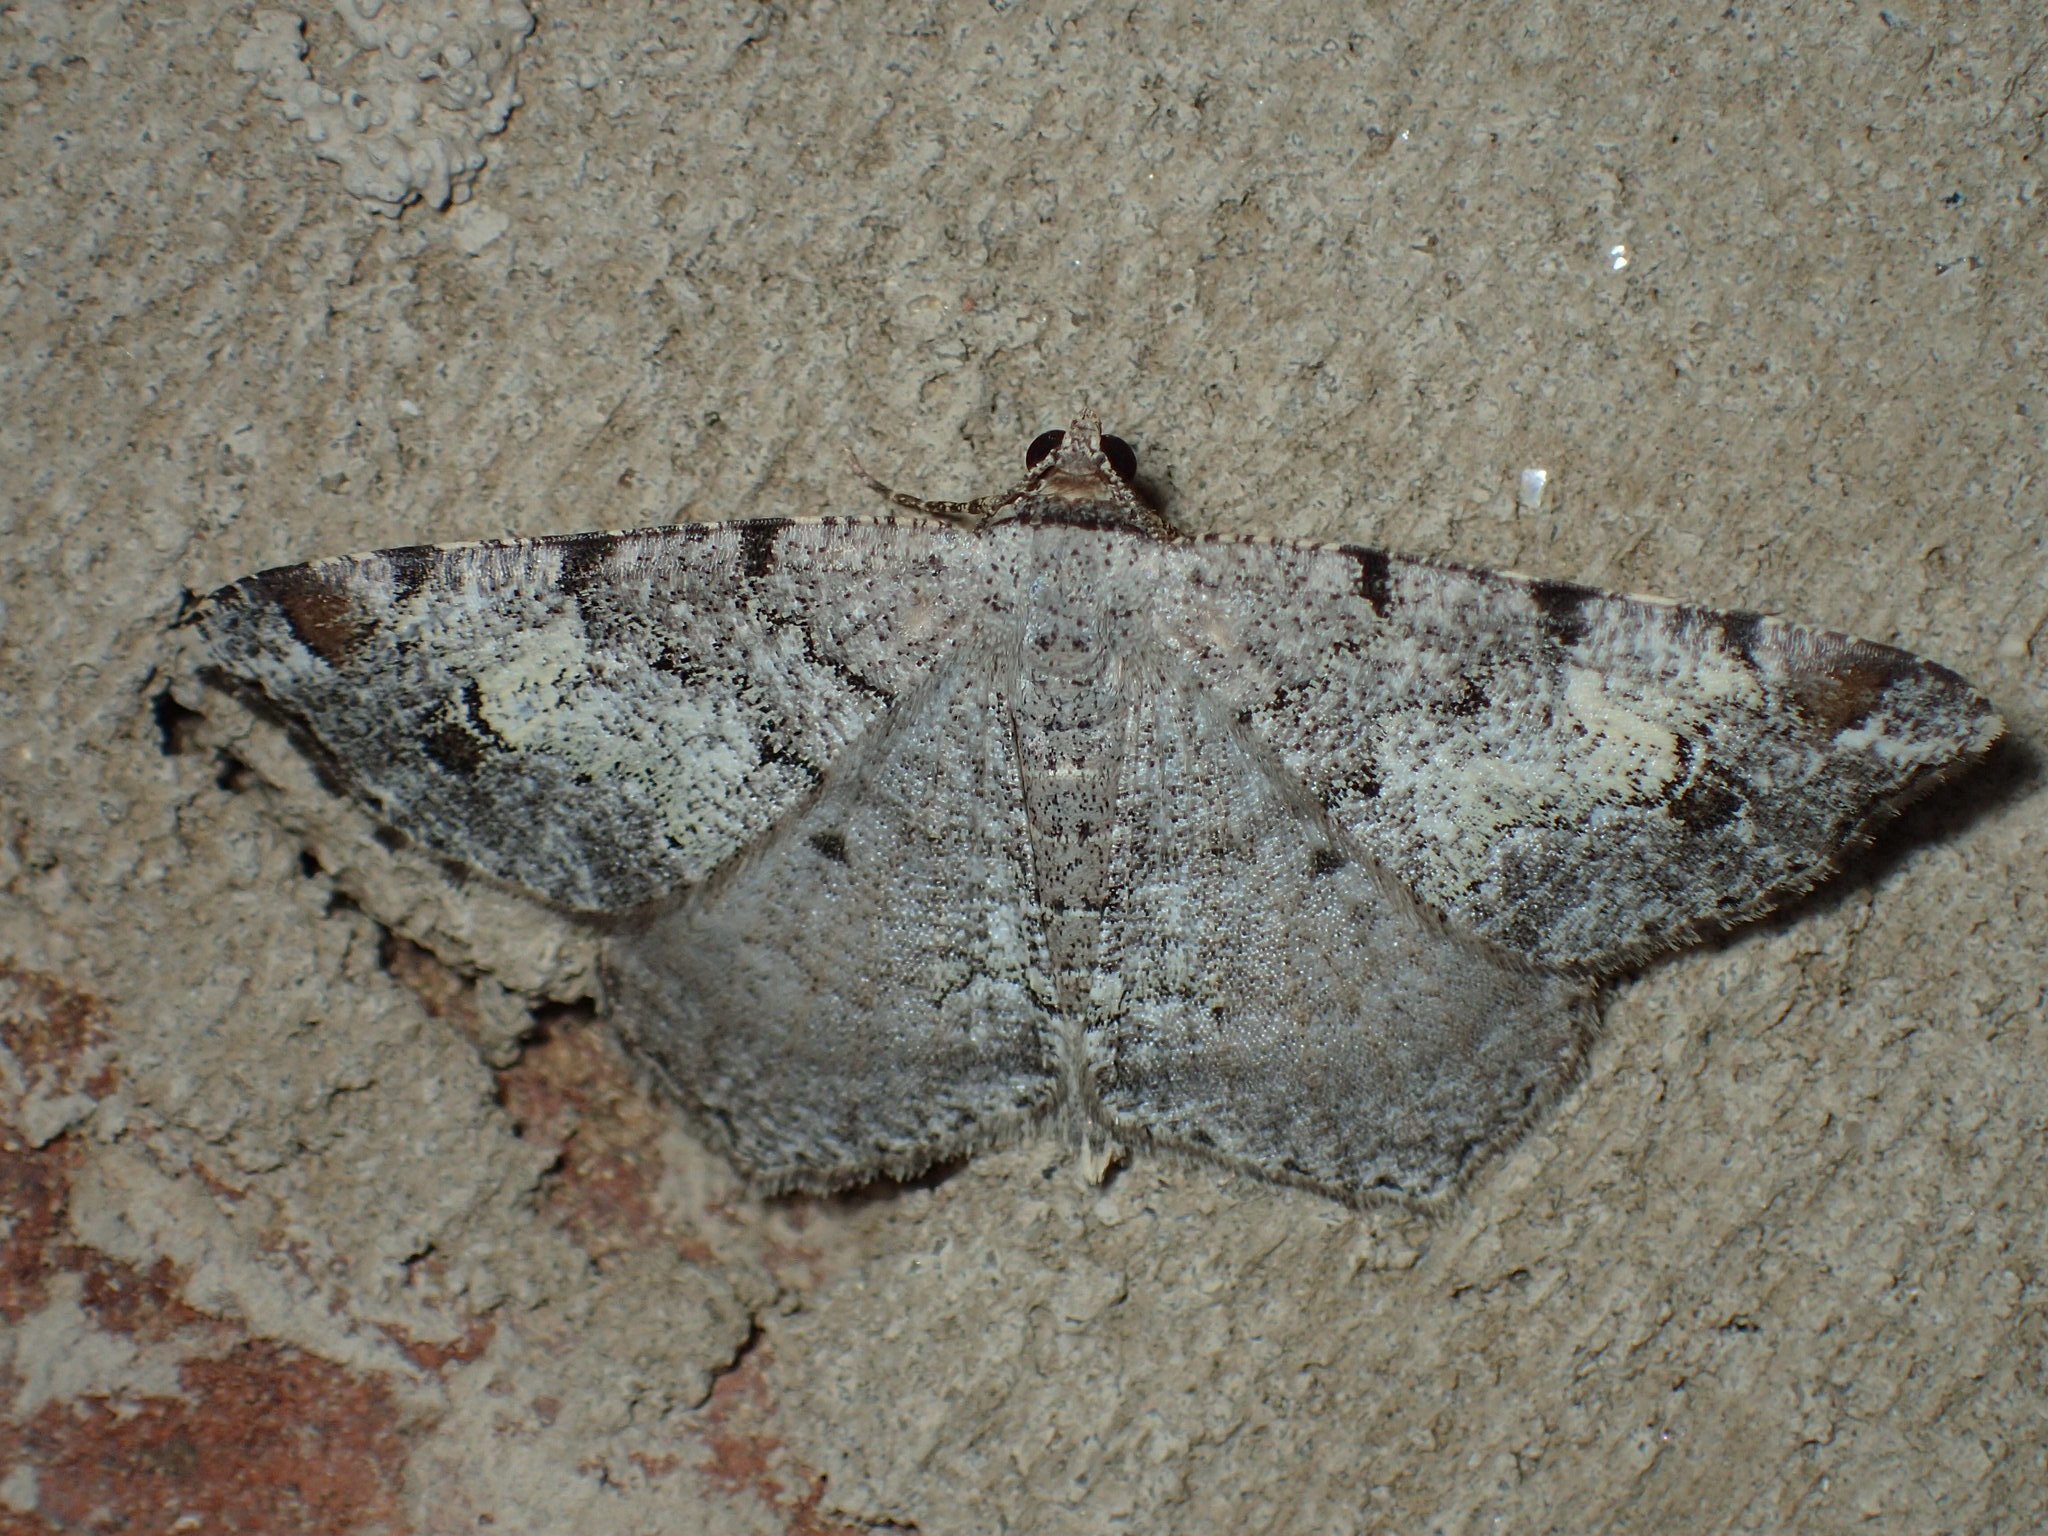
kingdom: Animalia
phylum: Arthropoda
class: Insecta
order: Lepidoptera
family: Geometridae
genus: Macaria
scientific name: Macaria granitata
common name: Granite moth
